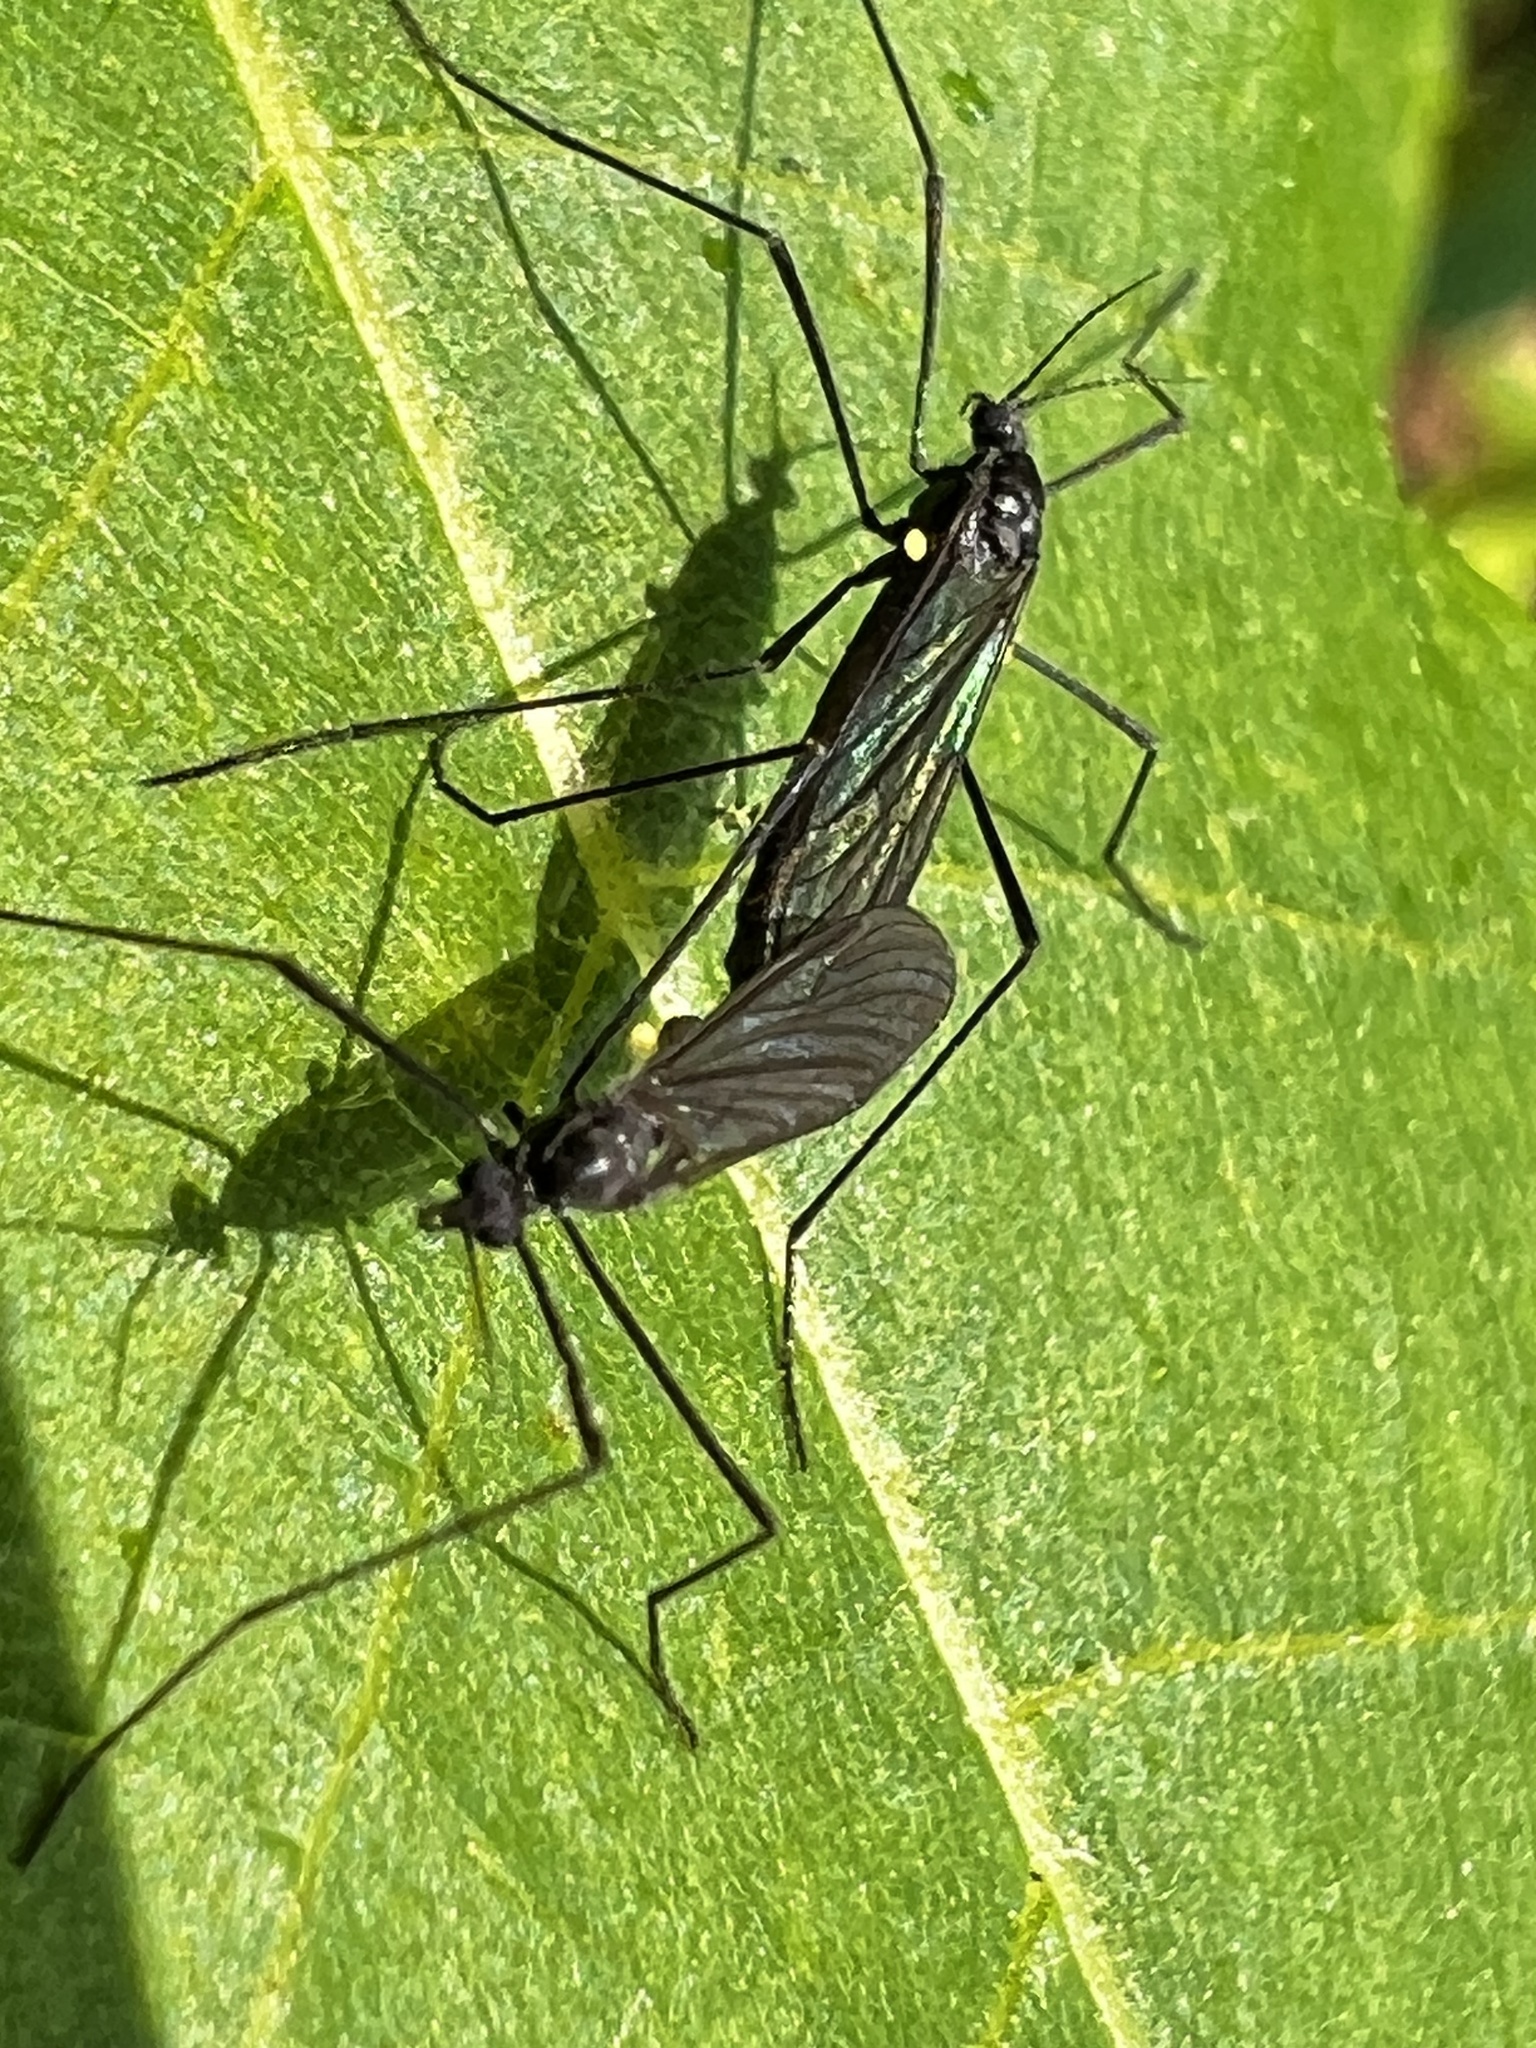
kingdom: Animalia
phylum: Arthropoda
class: Insecta
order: Diptera
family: Limoniidae
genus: Gnophomyia
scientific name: Gnophomyia tristissima
